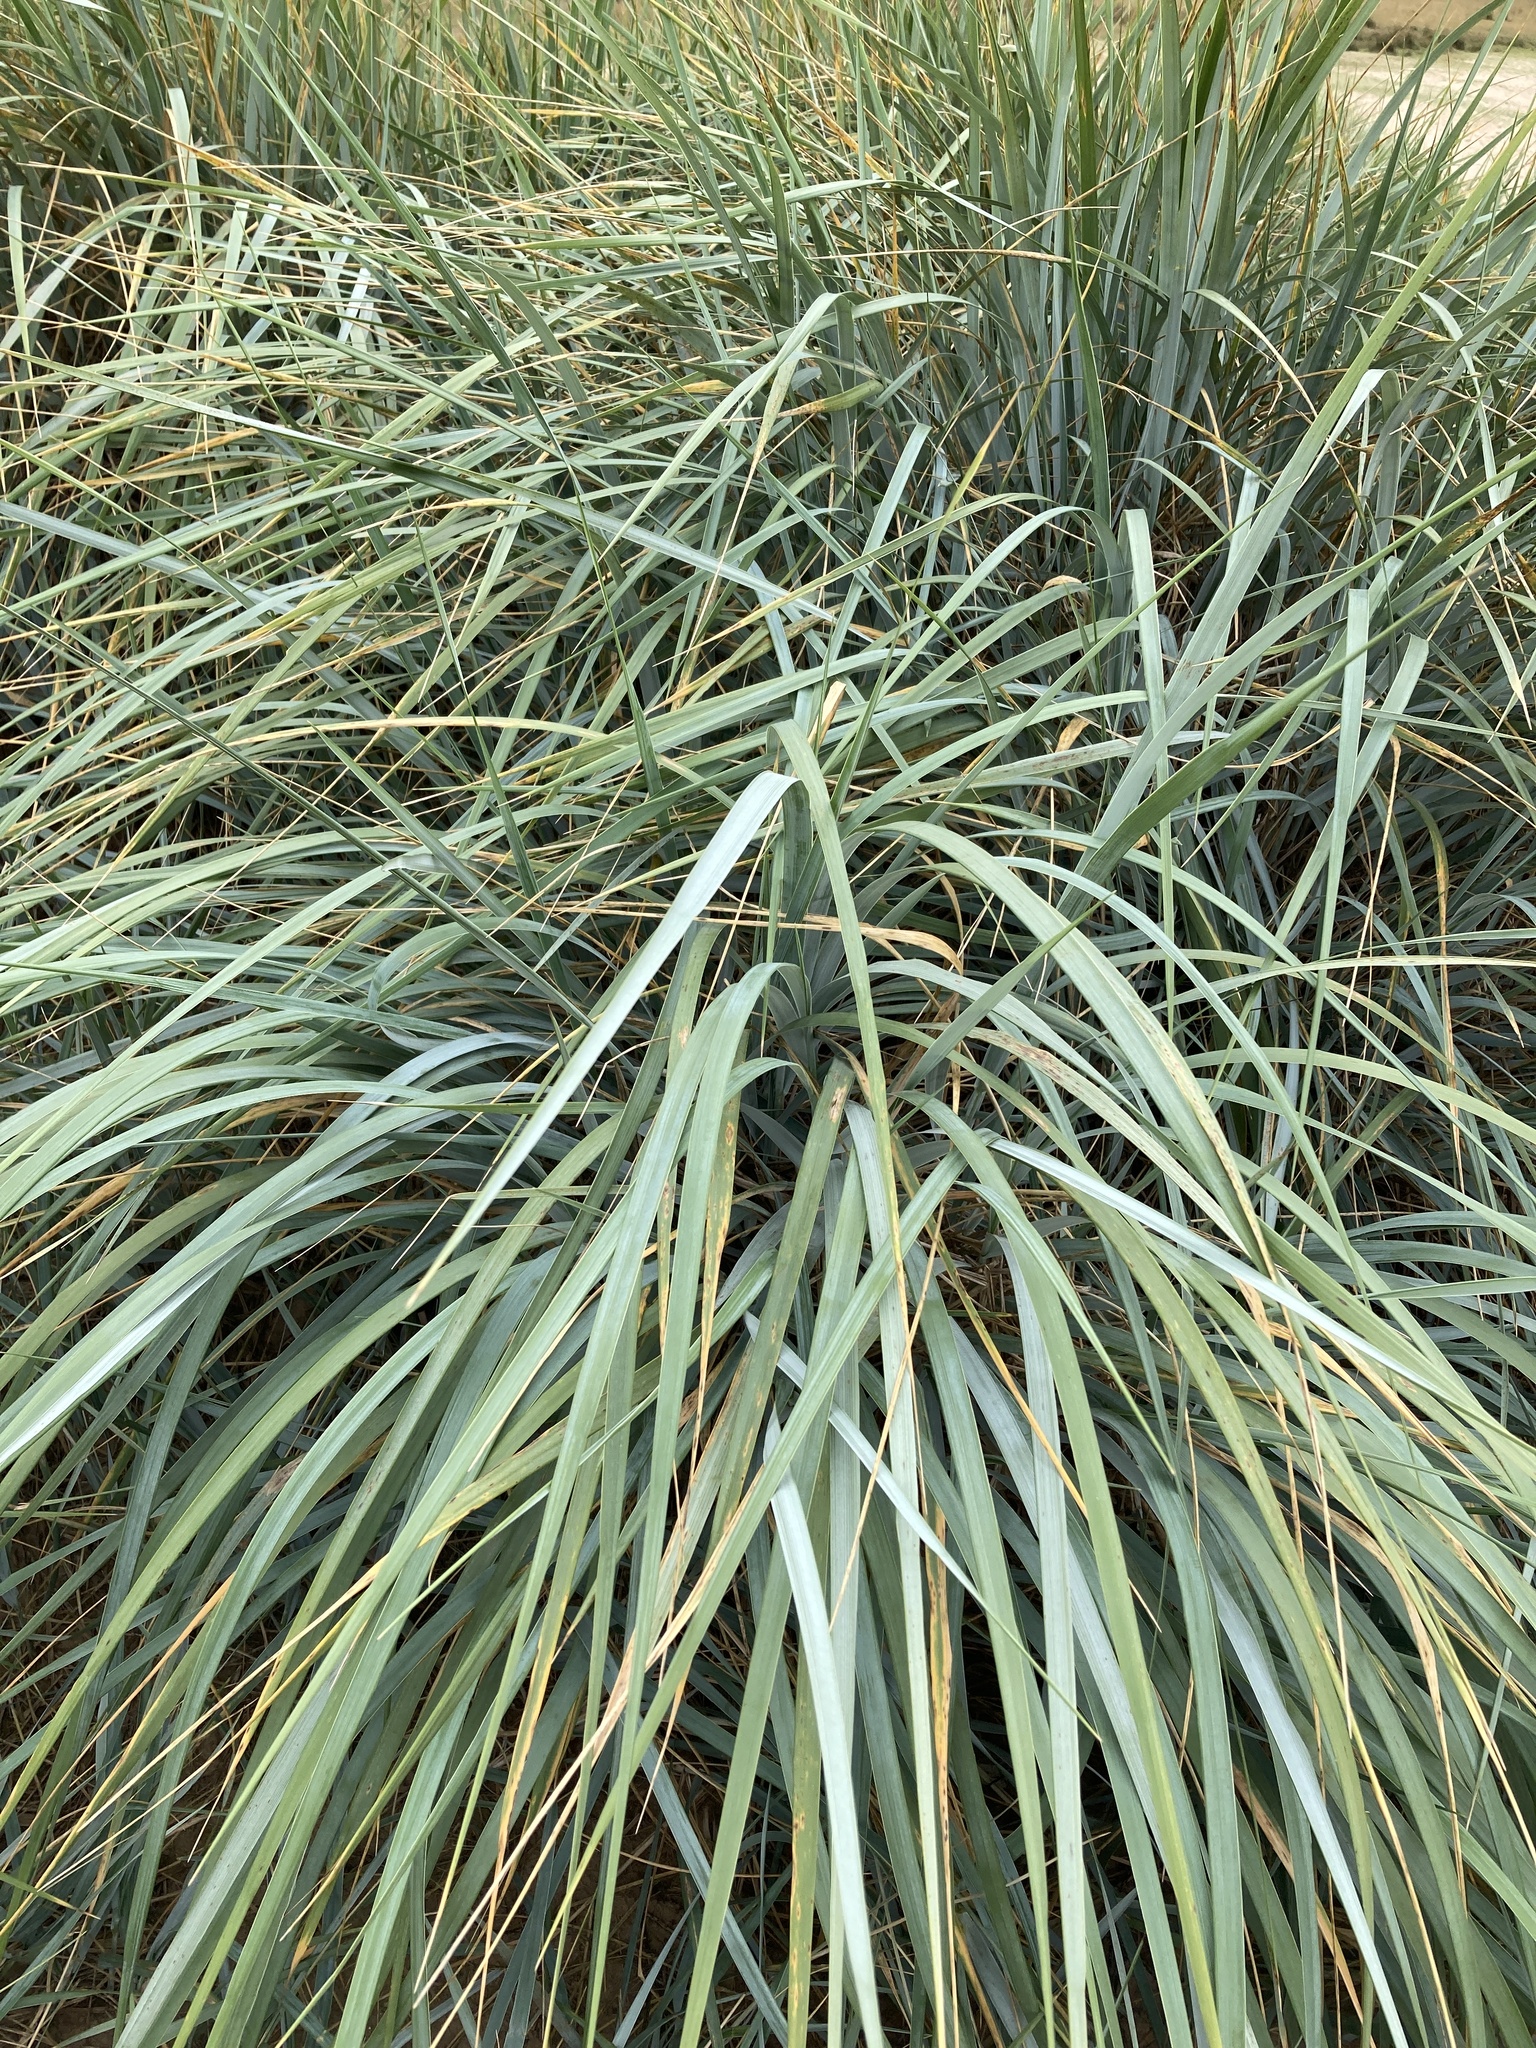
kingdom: Plantae
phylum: Tracheophyta
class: Liliopsida
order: Poales
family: Poaceae
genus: Leymus
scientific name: Leymus arenarius
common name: Lyme-grass
